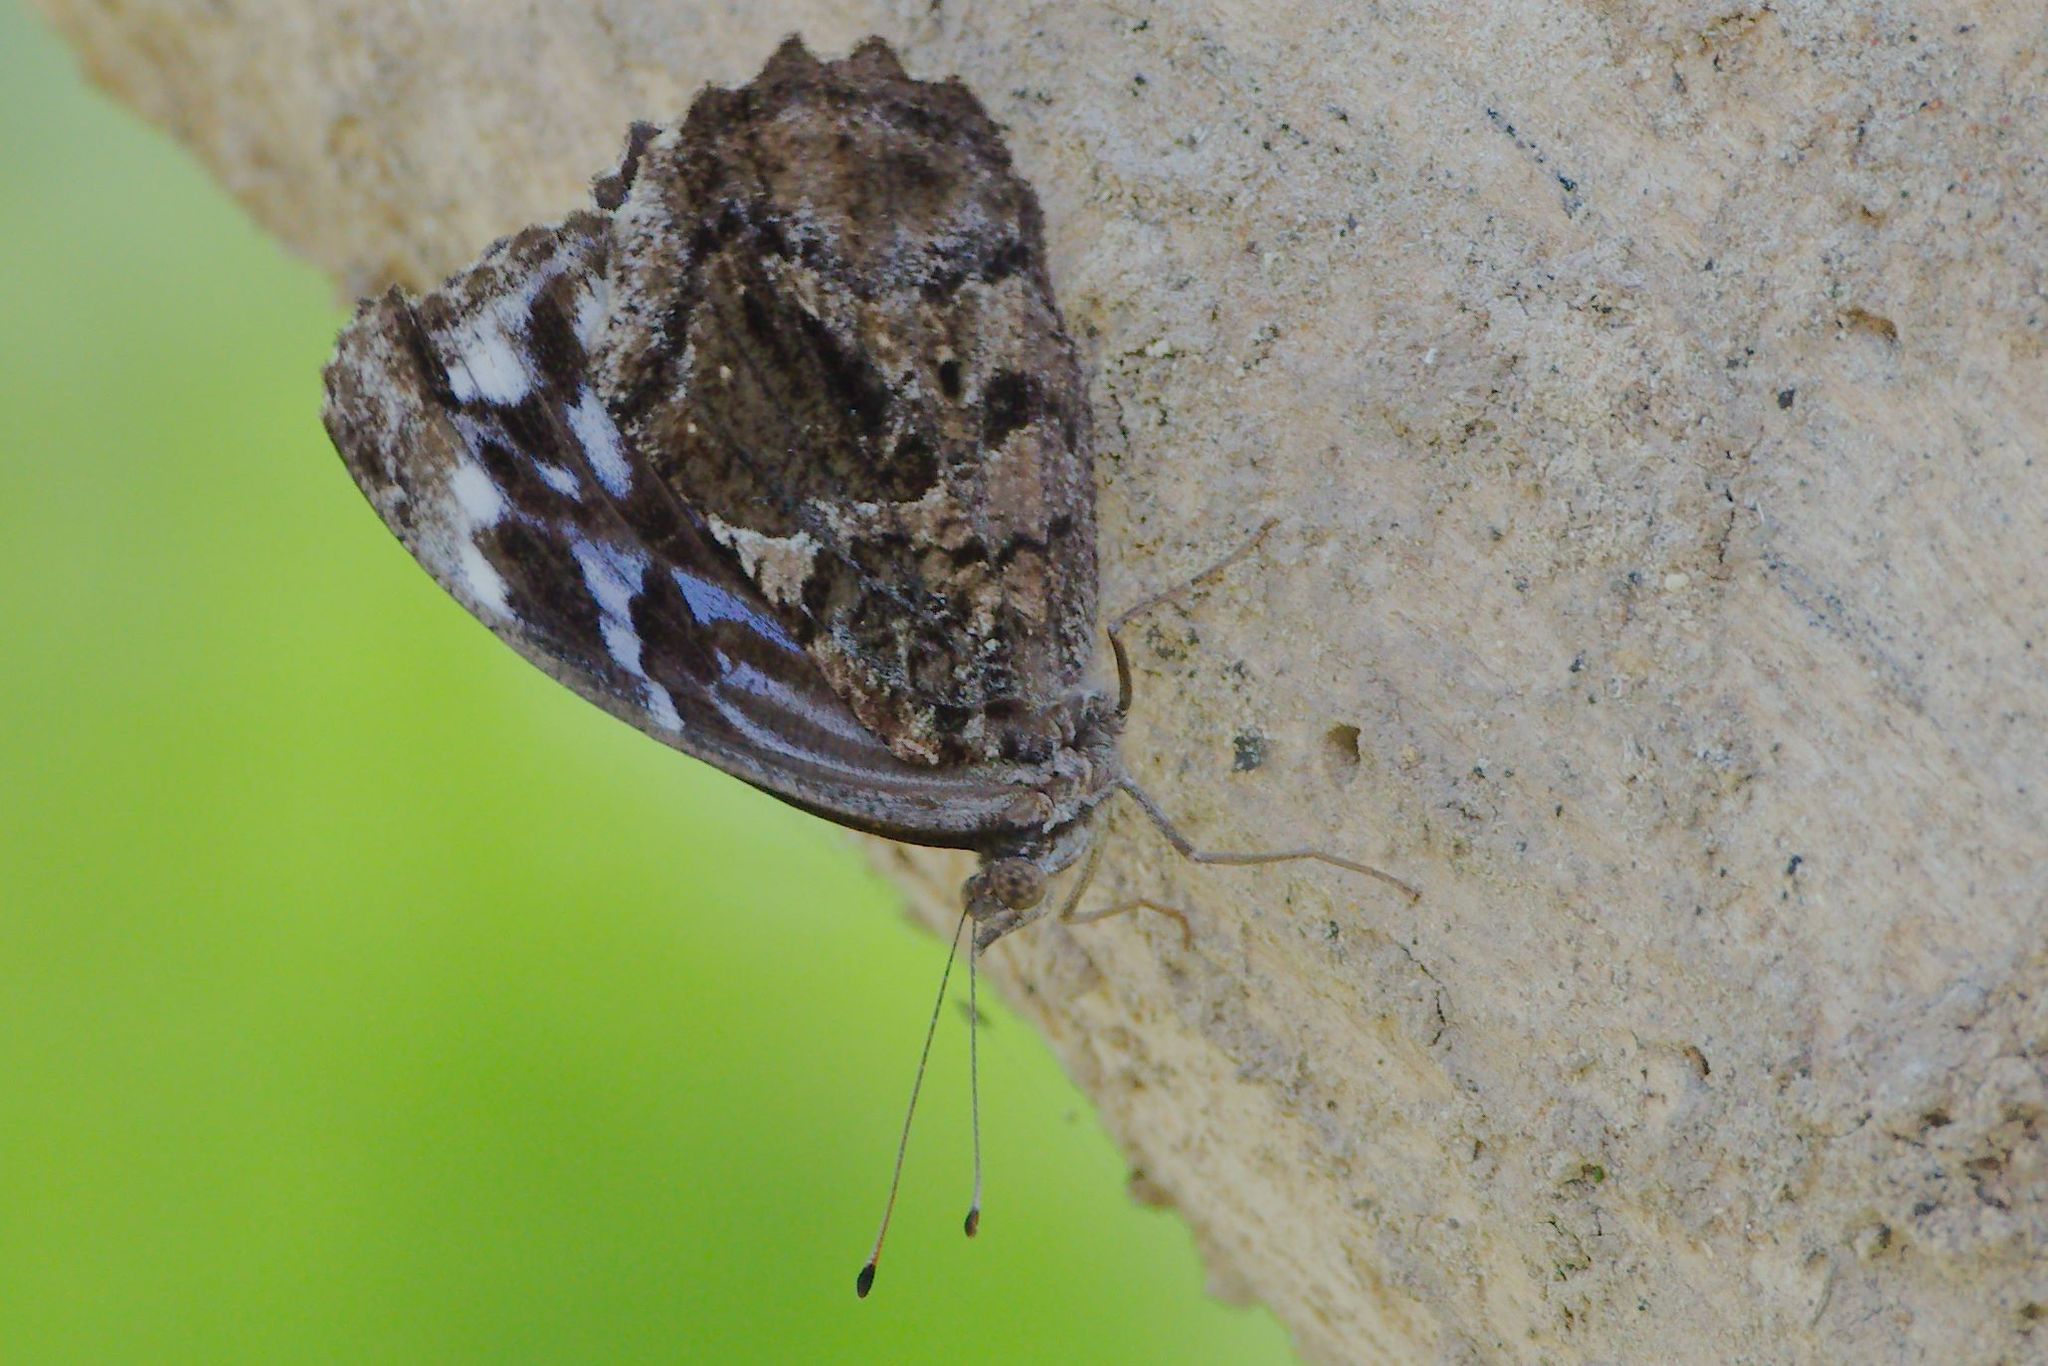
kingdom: Animalia
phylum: Arthropoda
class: Insecta
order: Lepidoptera
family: Nymphalidae
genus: Myscelia
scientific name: Myscelia ethusa
